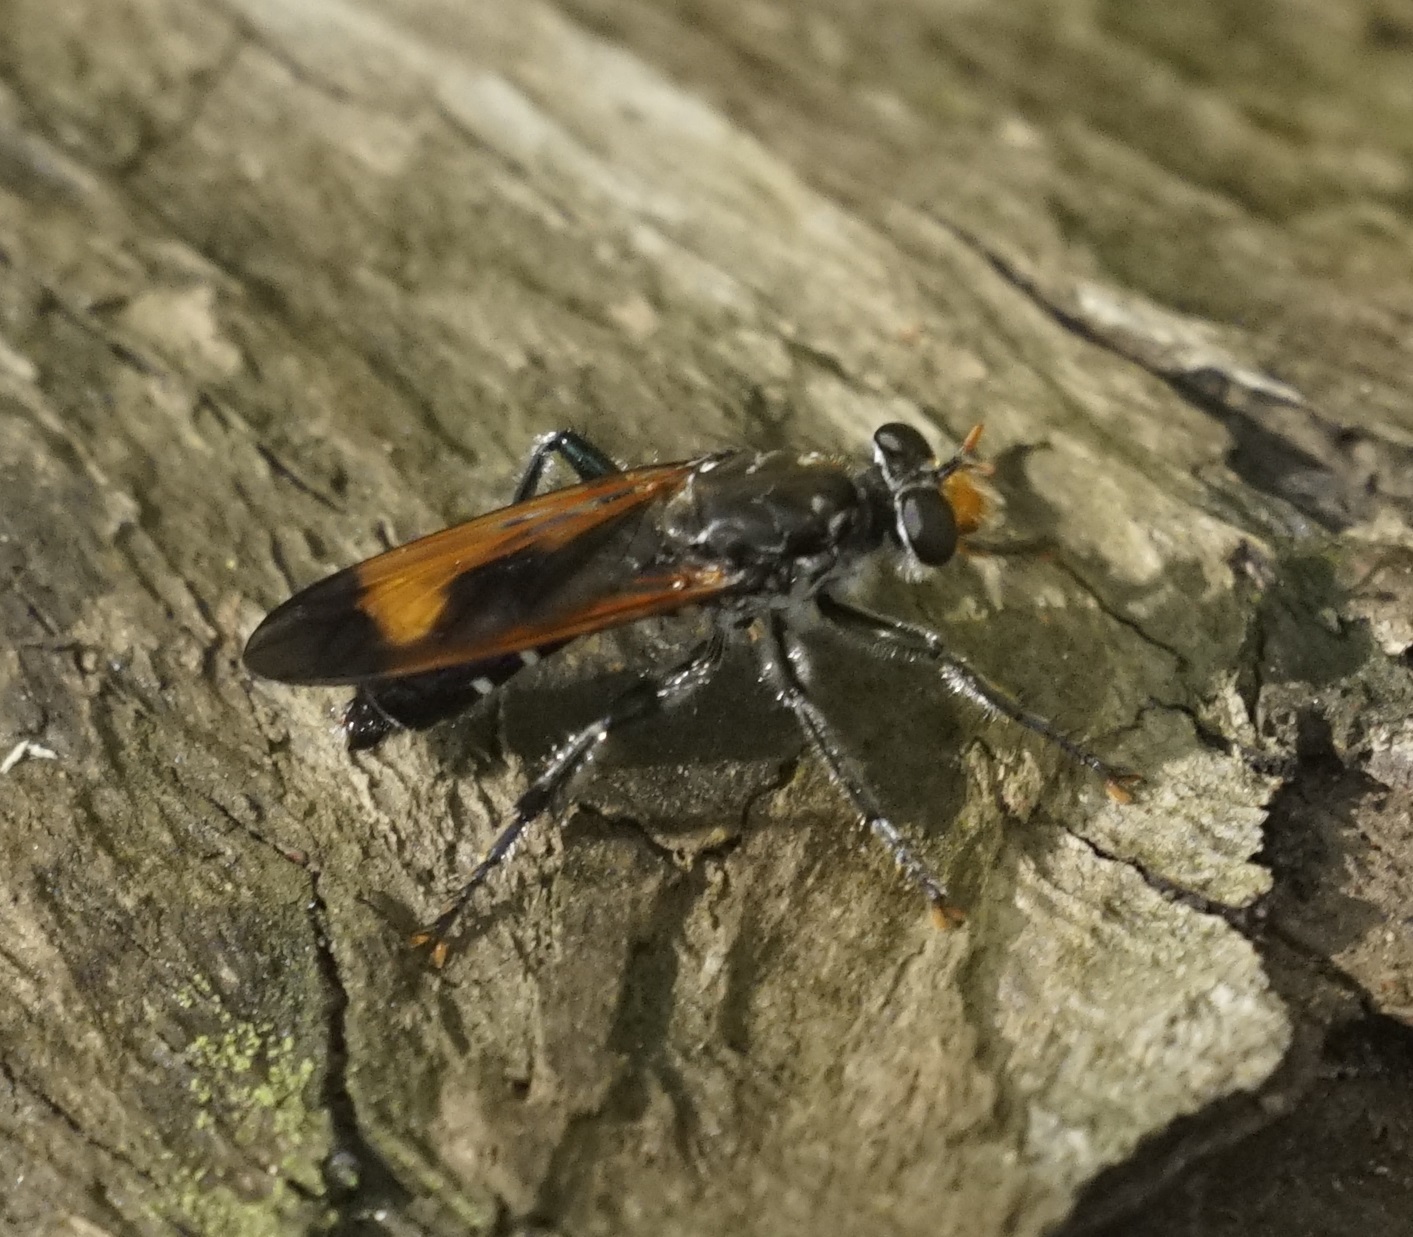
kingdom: Animalia
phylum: Arthropoda
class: Insecta
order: Diptera
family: Asilidae
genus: Orthogonis
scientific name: Orthogonis ornatipennis
